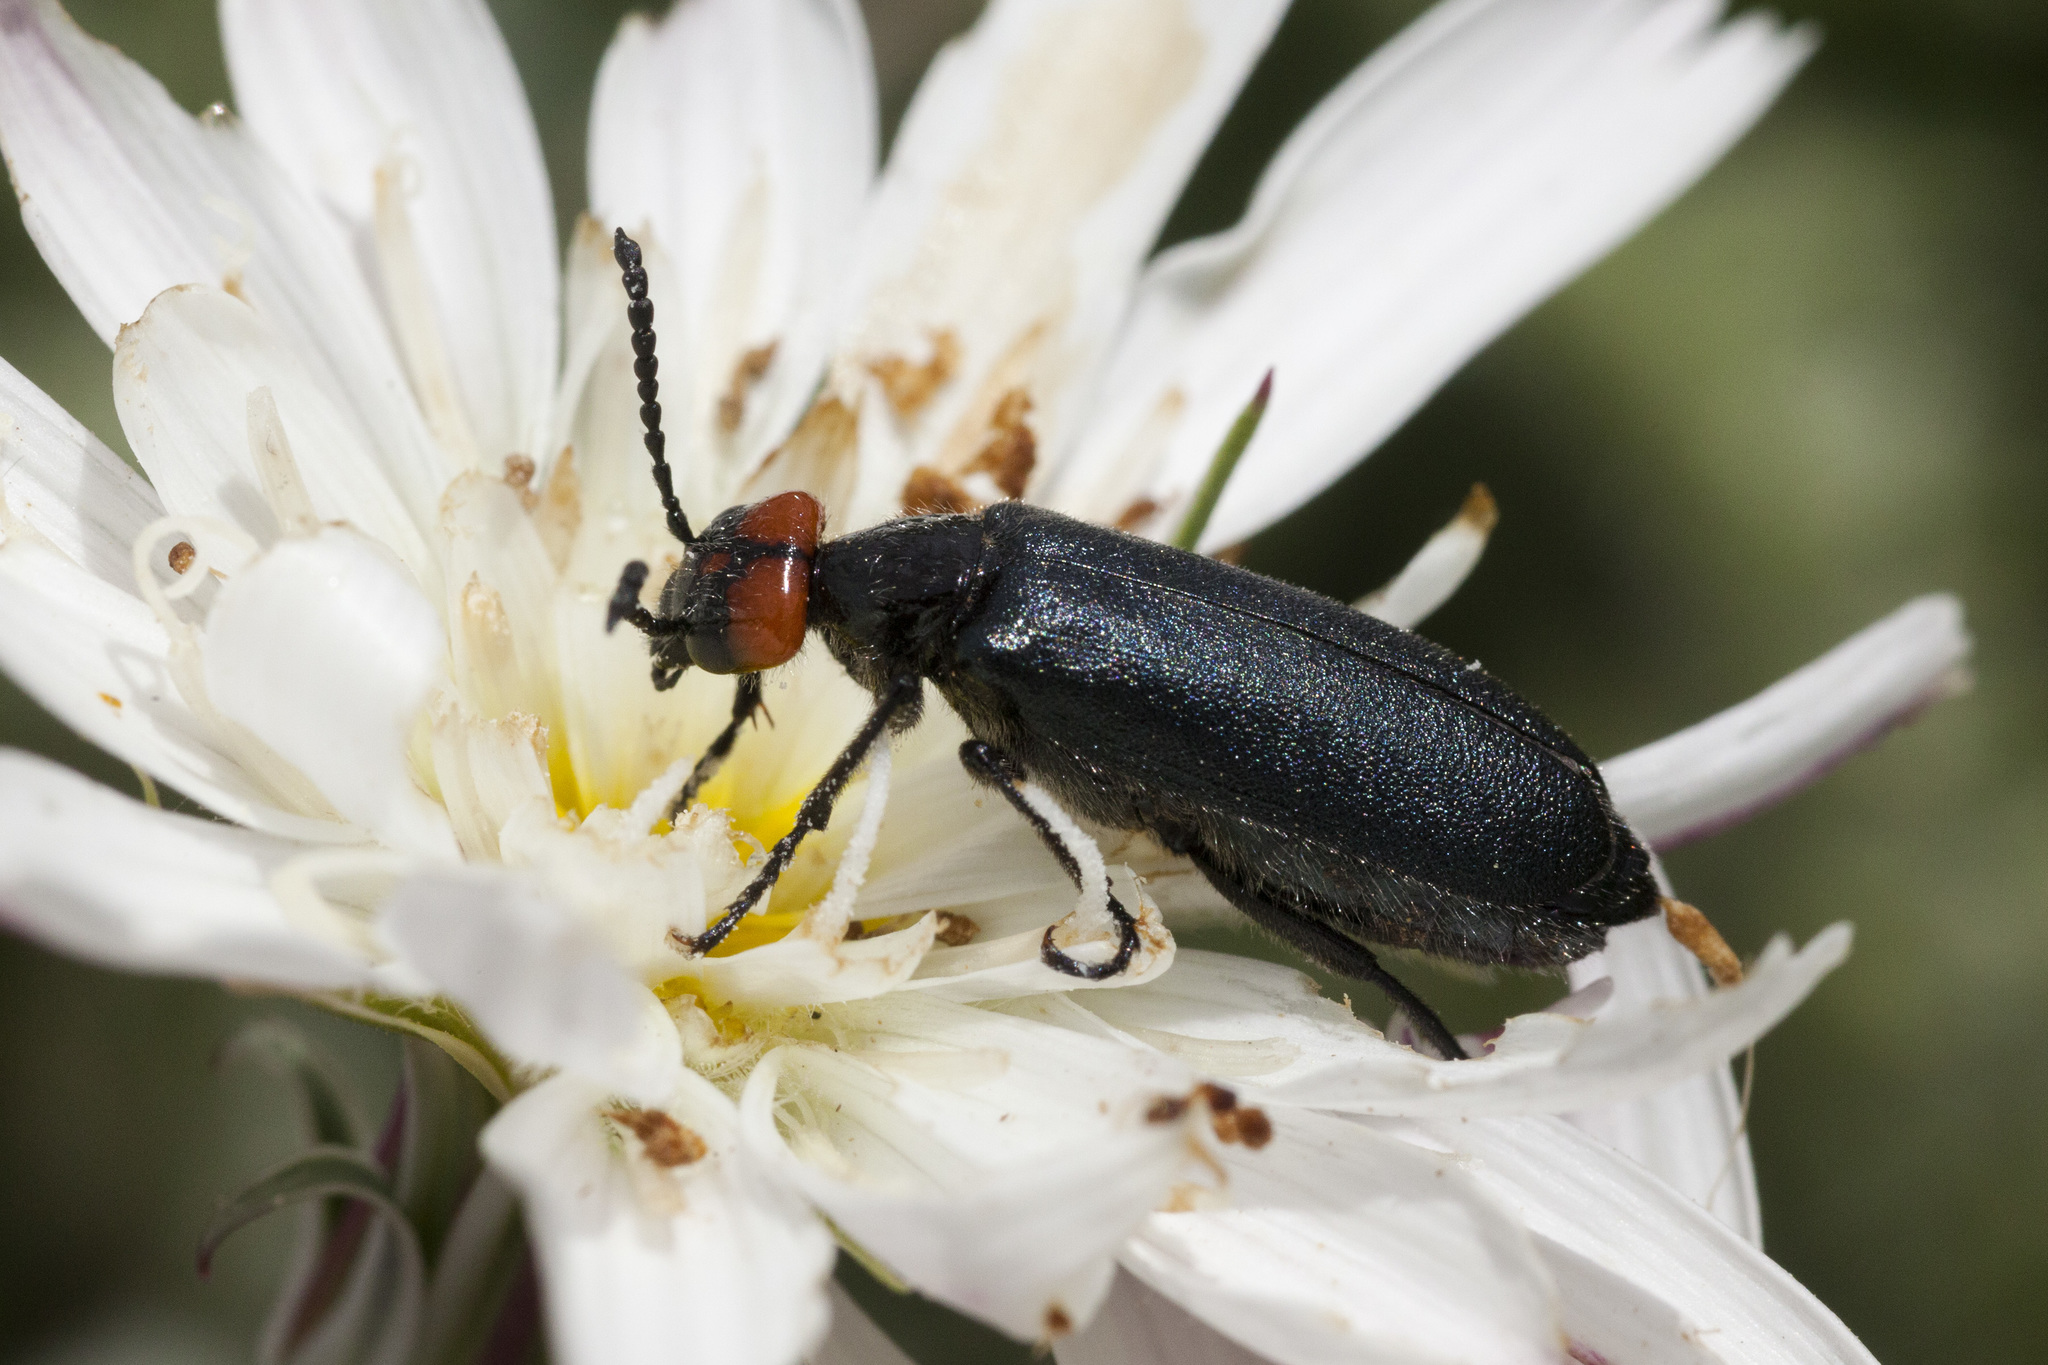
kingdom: Animalia
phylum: Arthropoda
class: Insecta
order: Coleoptera
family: Meloidae
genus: Lytta
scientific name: Lytta auriculata
